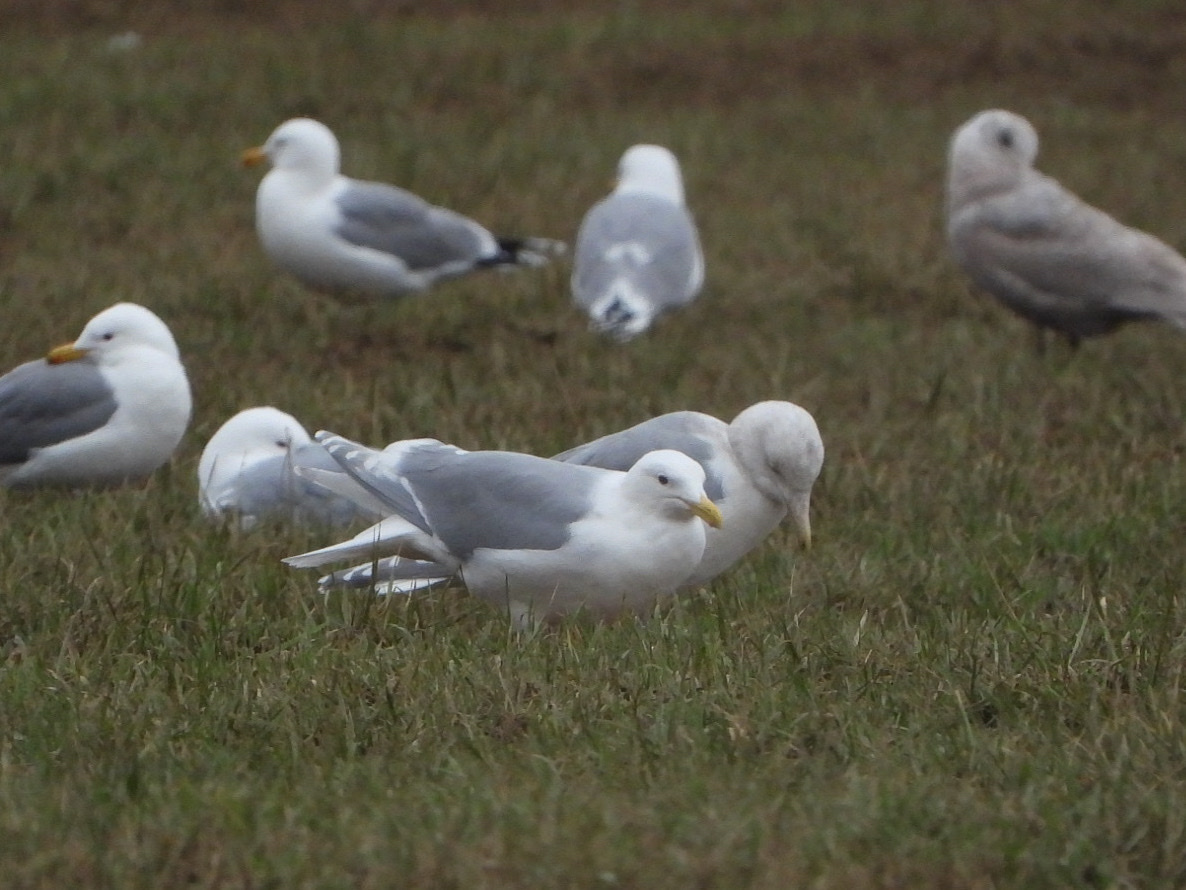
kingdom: Animalia
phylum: Chordata
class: Aves
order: Charadriiformes
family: Laridae
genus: Larus
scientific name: Larus glaucescens
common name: Glaucous-winged gull
